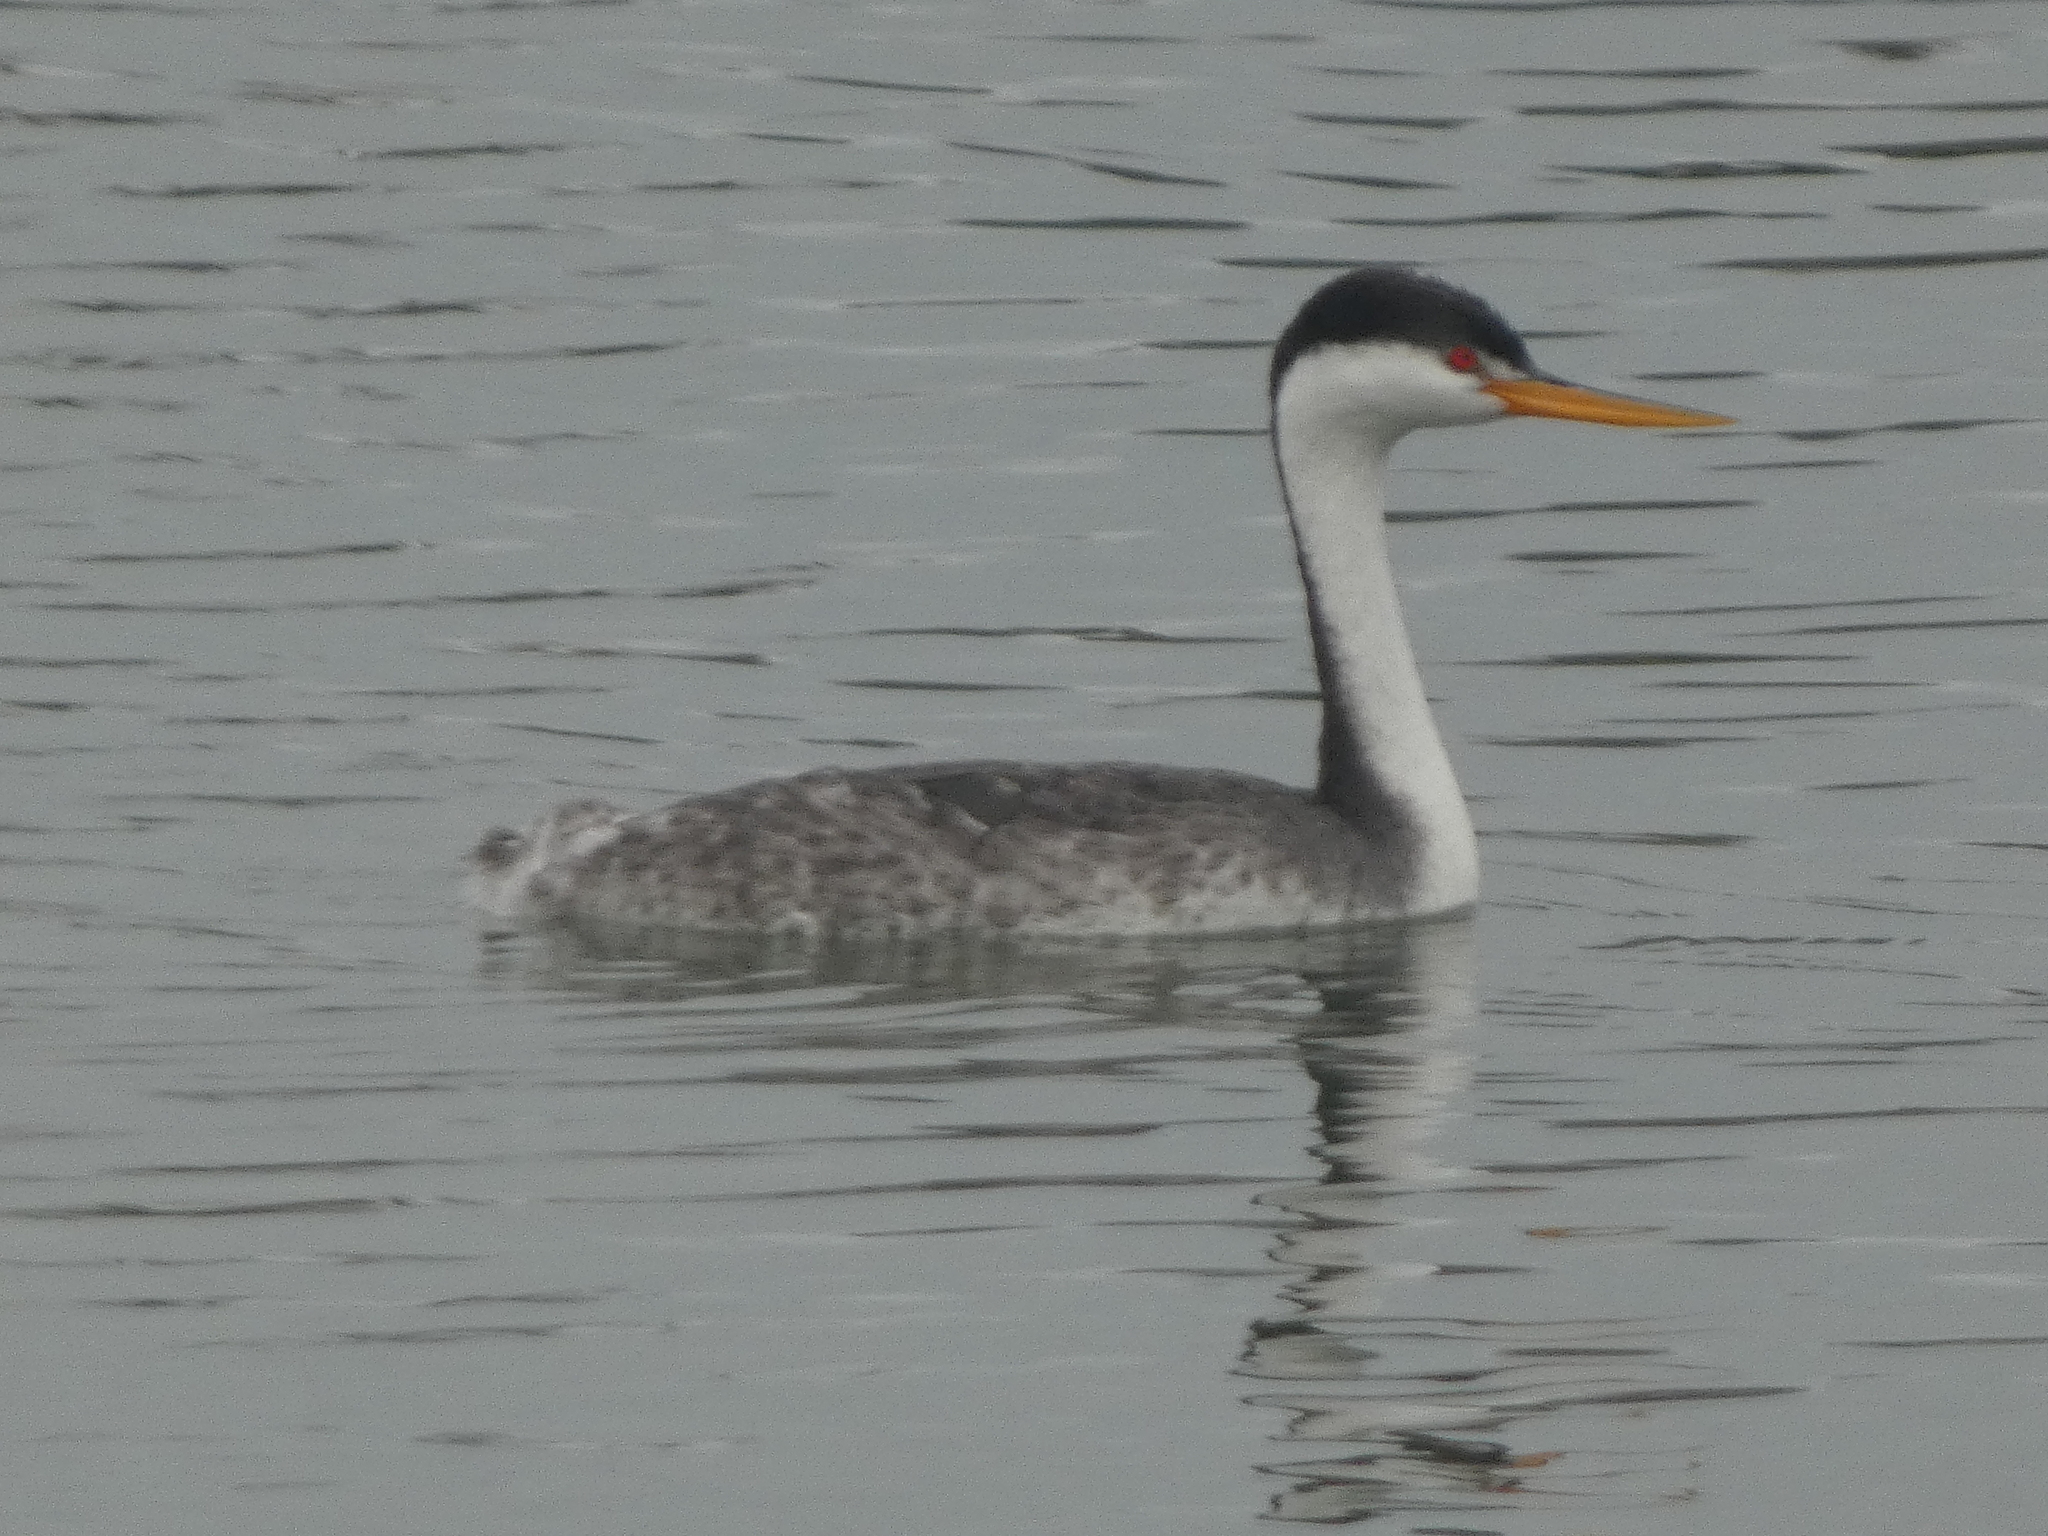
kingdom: Animalia
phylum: Chordata
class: Aves
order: Podicipediformes
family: Podicipedidae
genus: Aechmophorus
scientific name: Aechmophorus clarkii
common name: Clark's grebe
